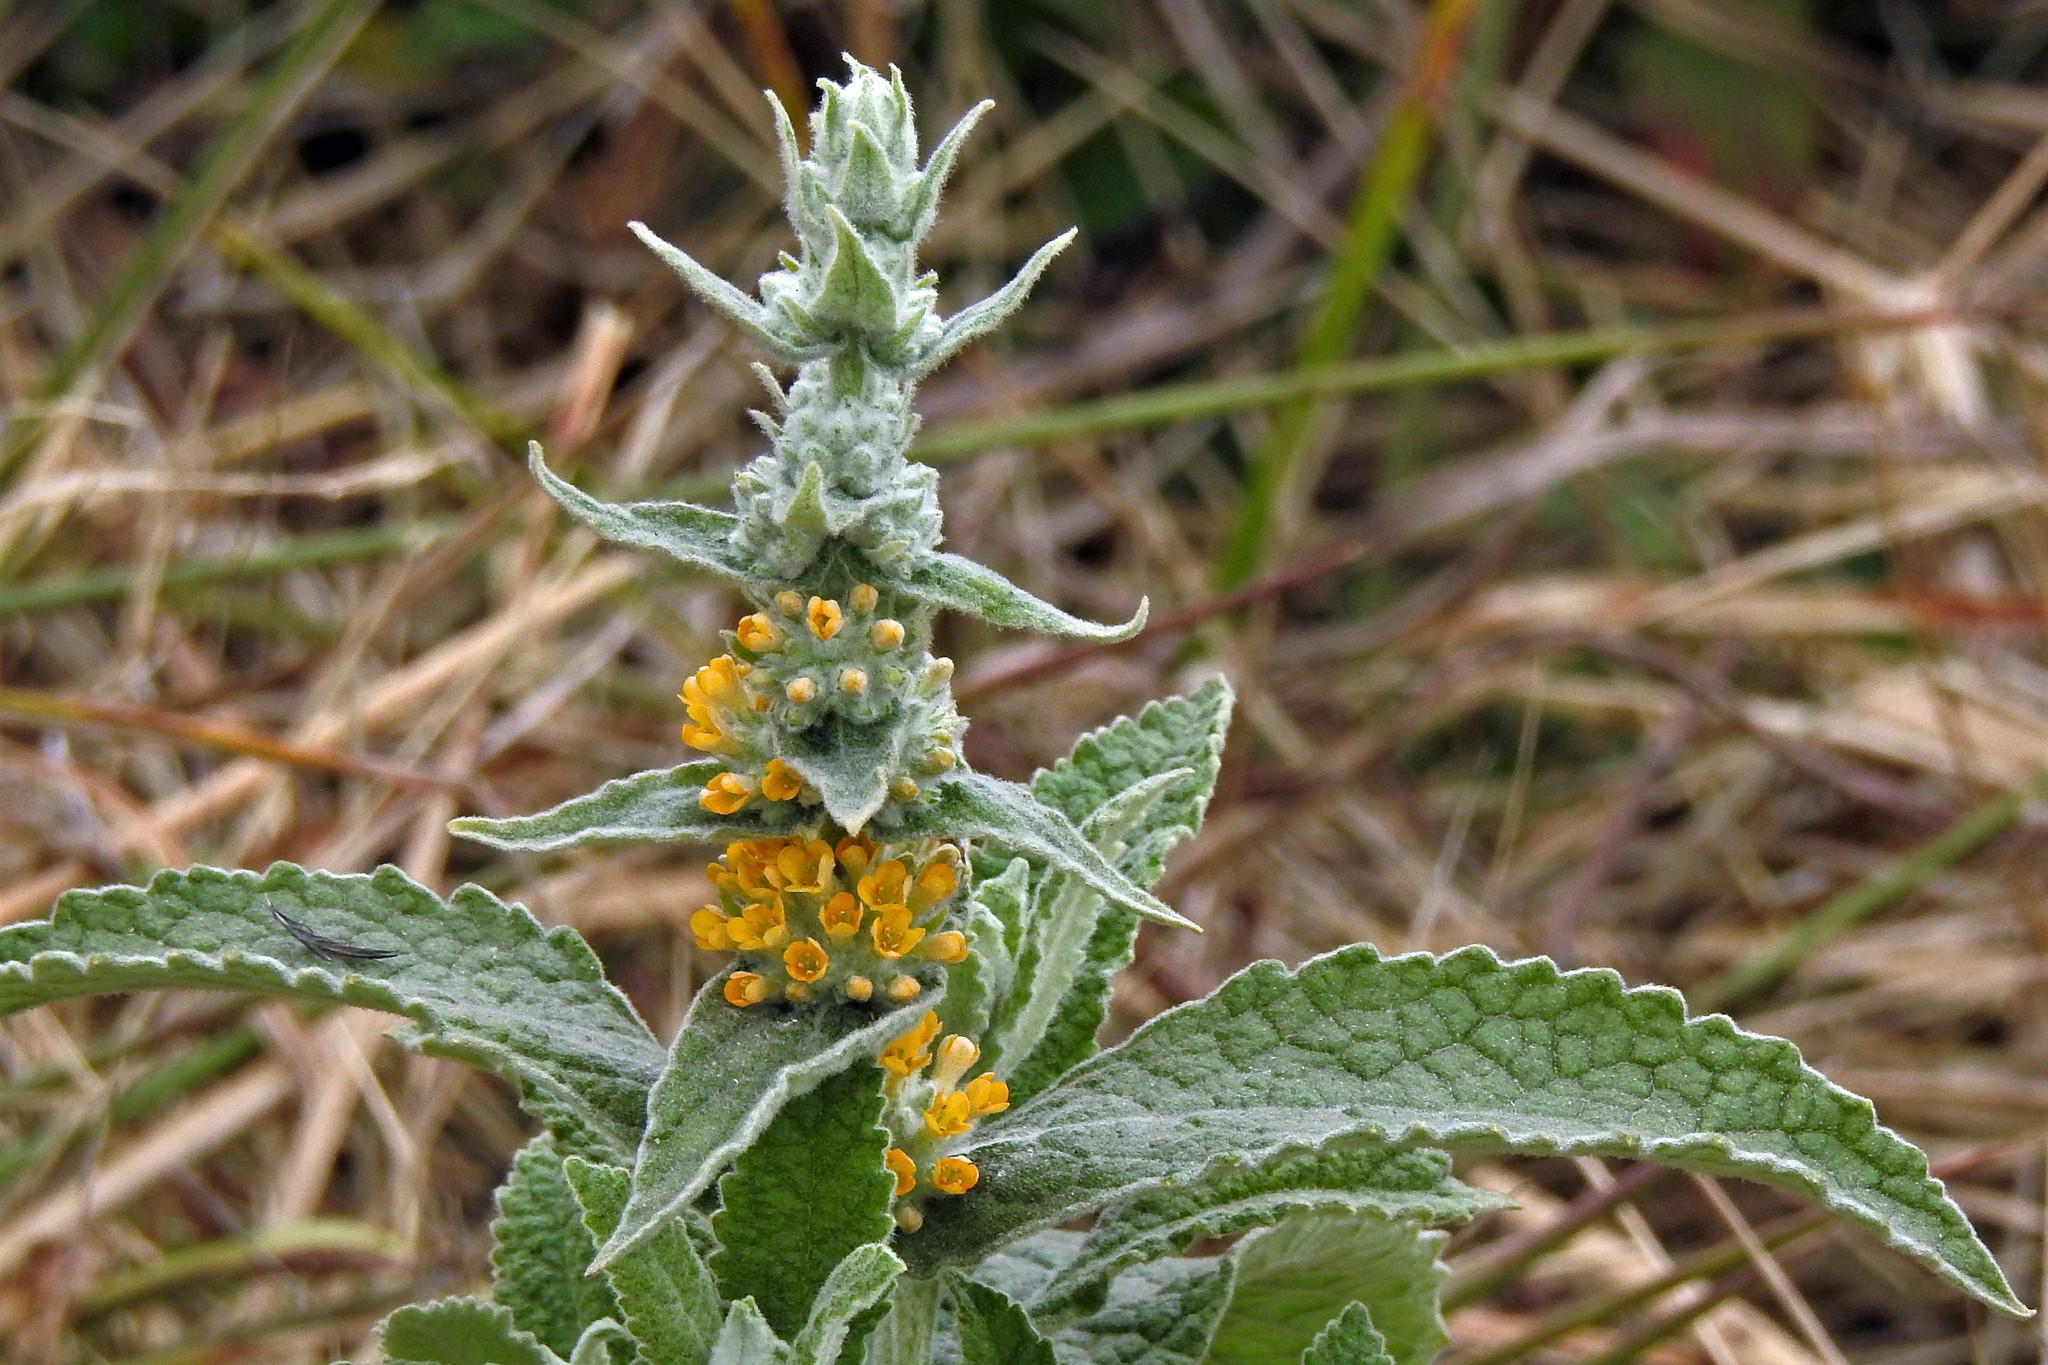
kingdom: Plantae
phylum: Tracheophyta
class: Magnoliopsida
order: Lamiales
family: Scrophulariaceae
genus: Buddleja
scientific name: Buddleja stachyoides
